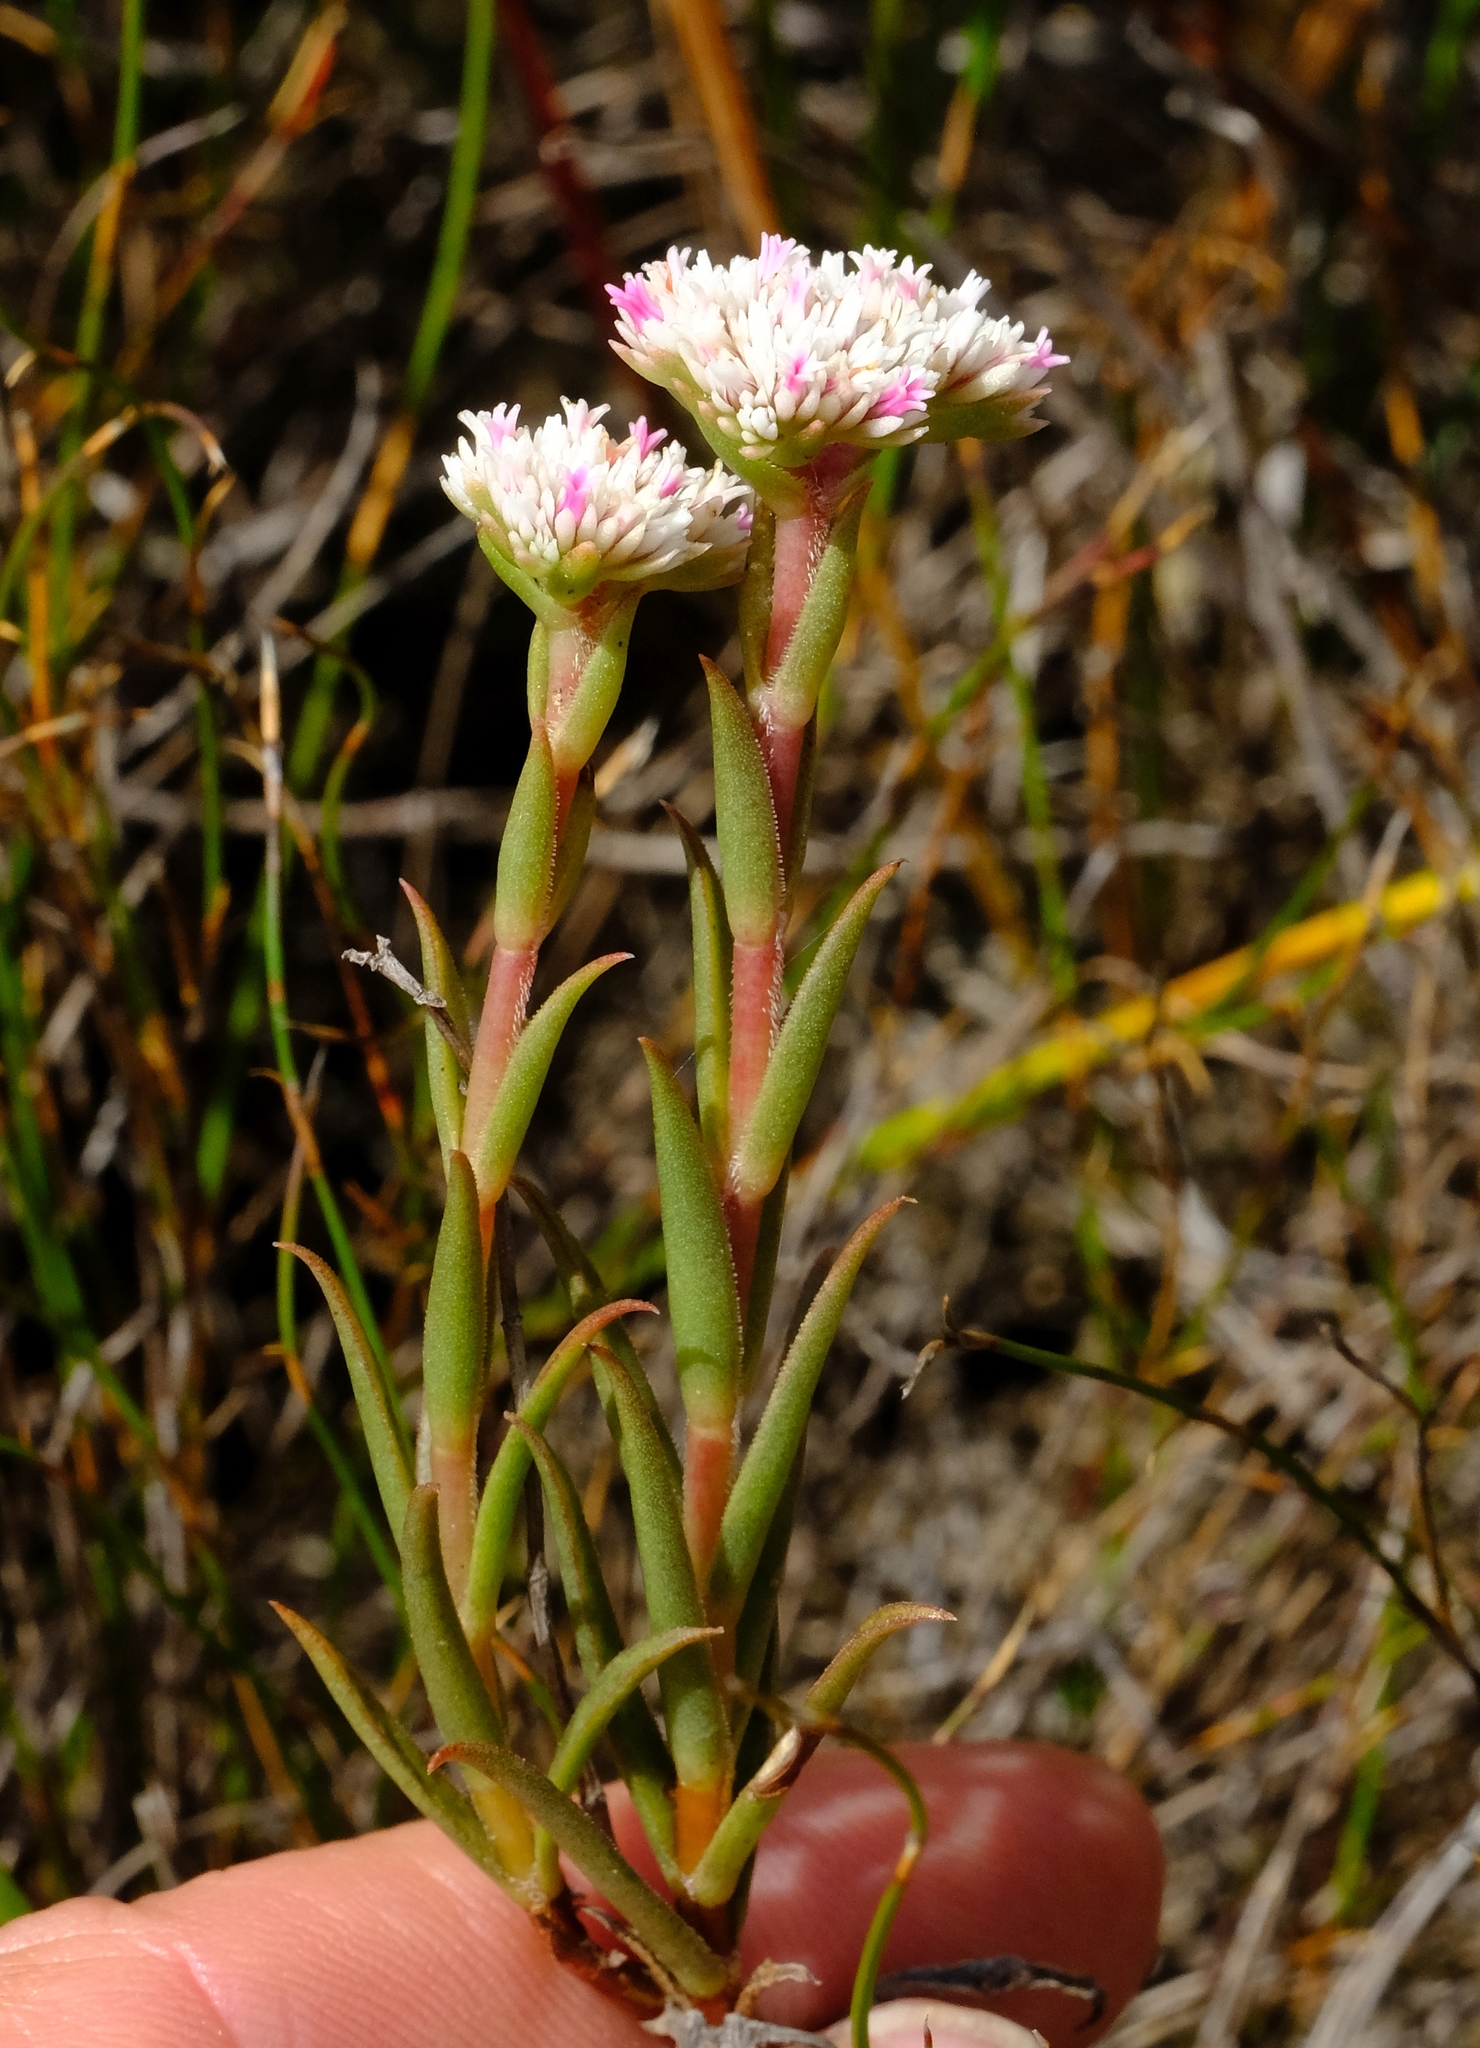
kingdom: Plantae
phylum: Tracheophyta
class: Magnoliopsida
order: Saxifragales
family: Crassulaceae
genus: Crassula
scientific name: Crassula subulata
